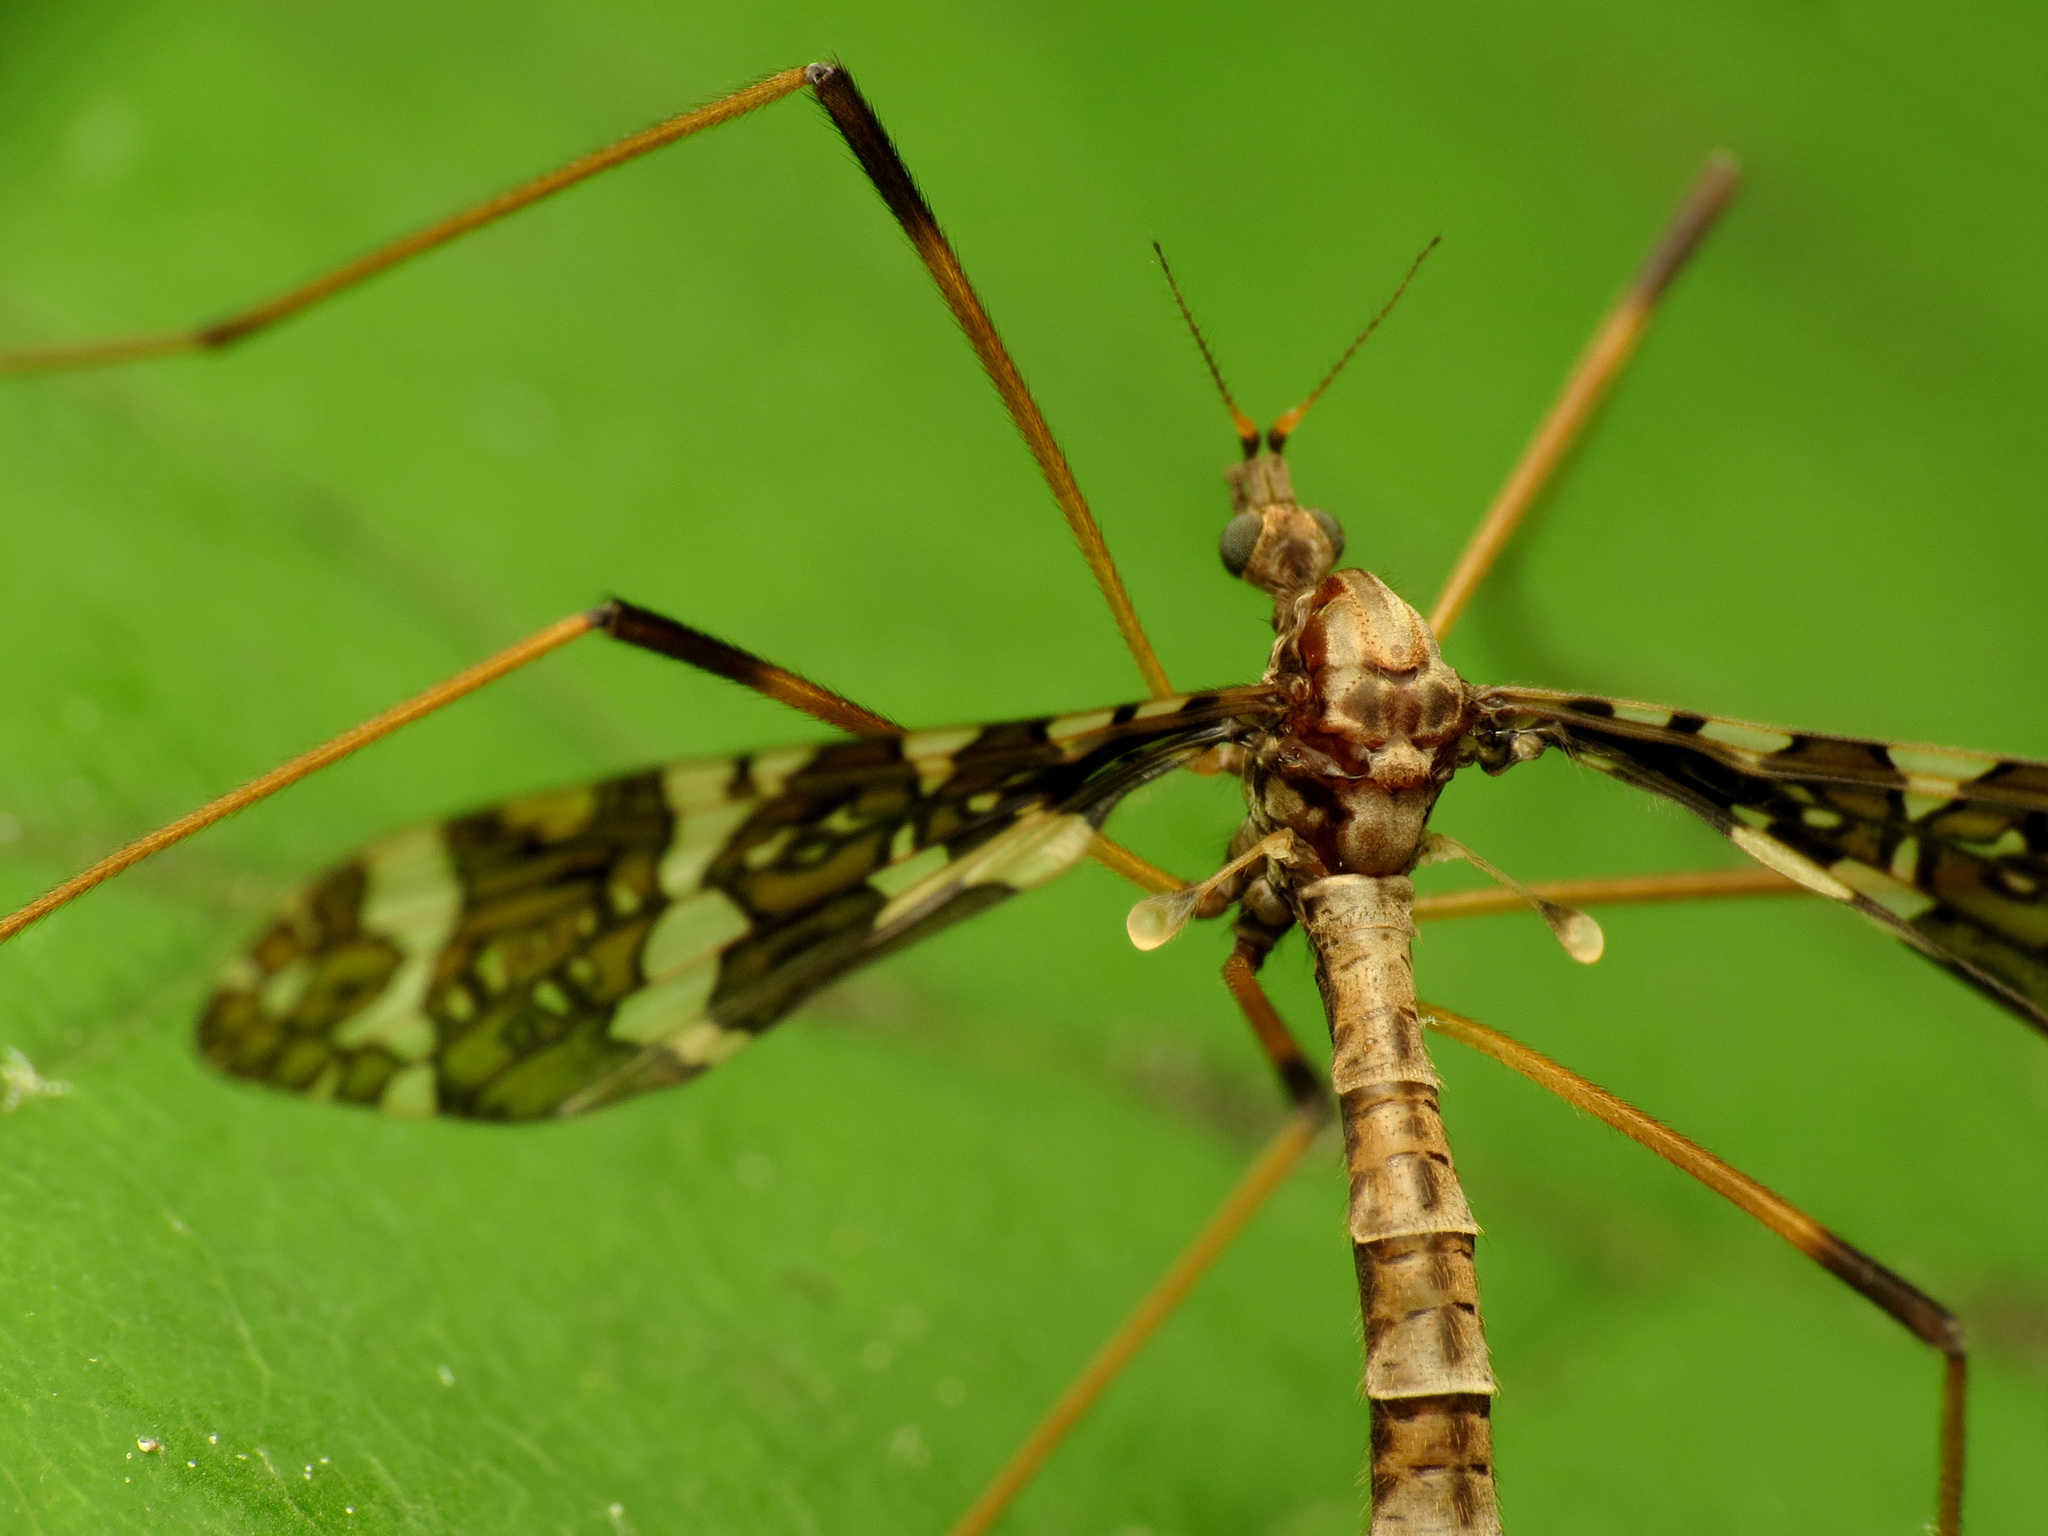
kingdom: Animalia
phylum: Arthropoda
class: Insecta
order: Diptera
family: Limoniidae
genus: Epiphragma
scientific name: Epiphragma fasciapenne
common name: Band-winged crane fly
